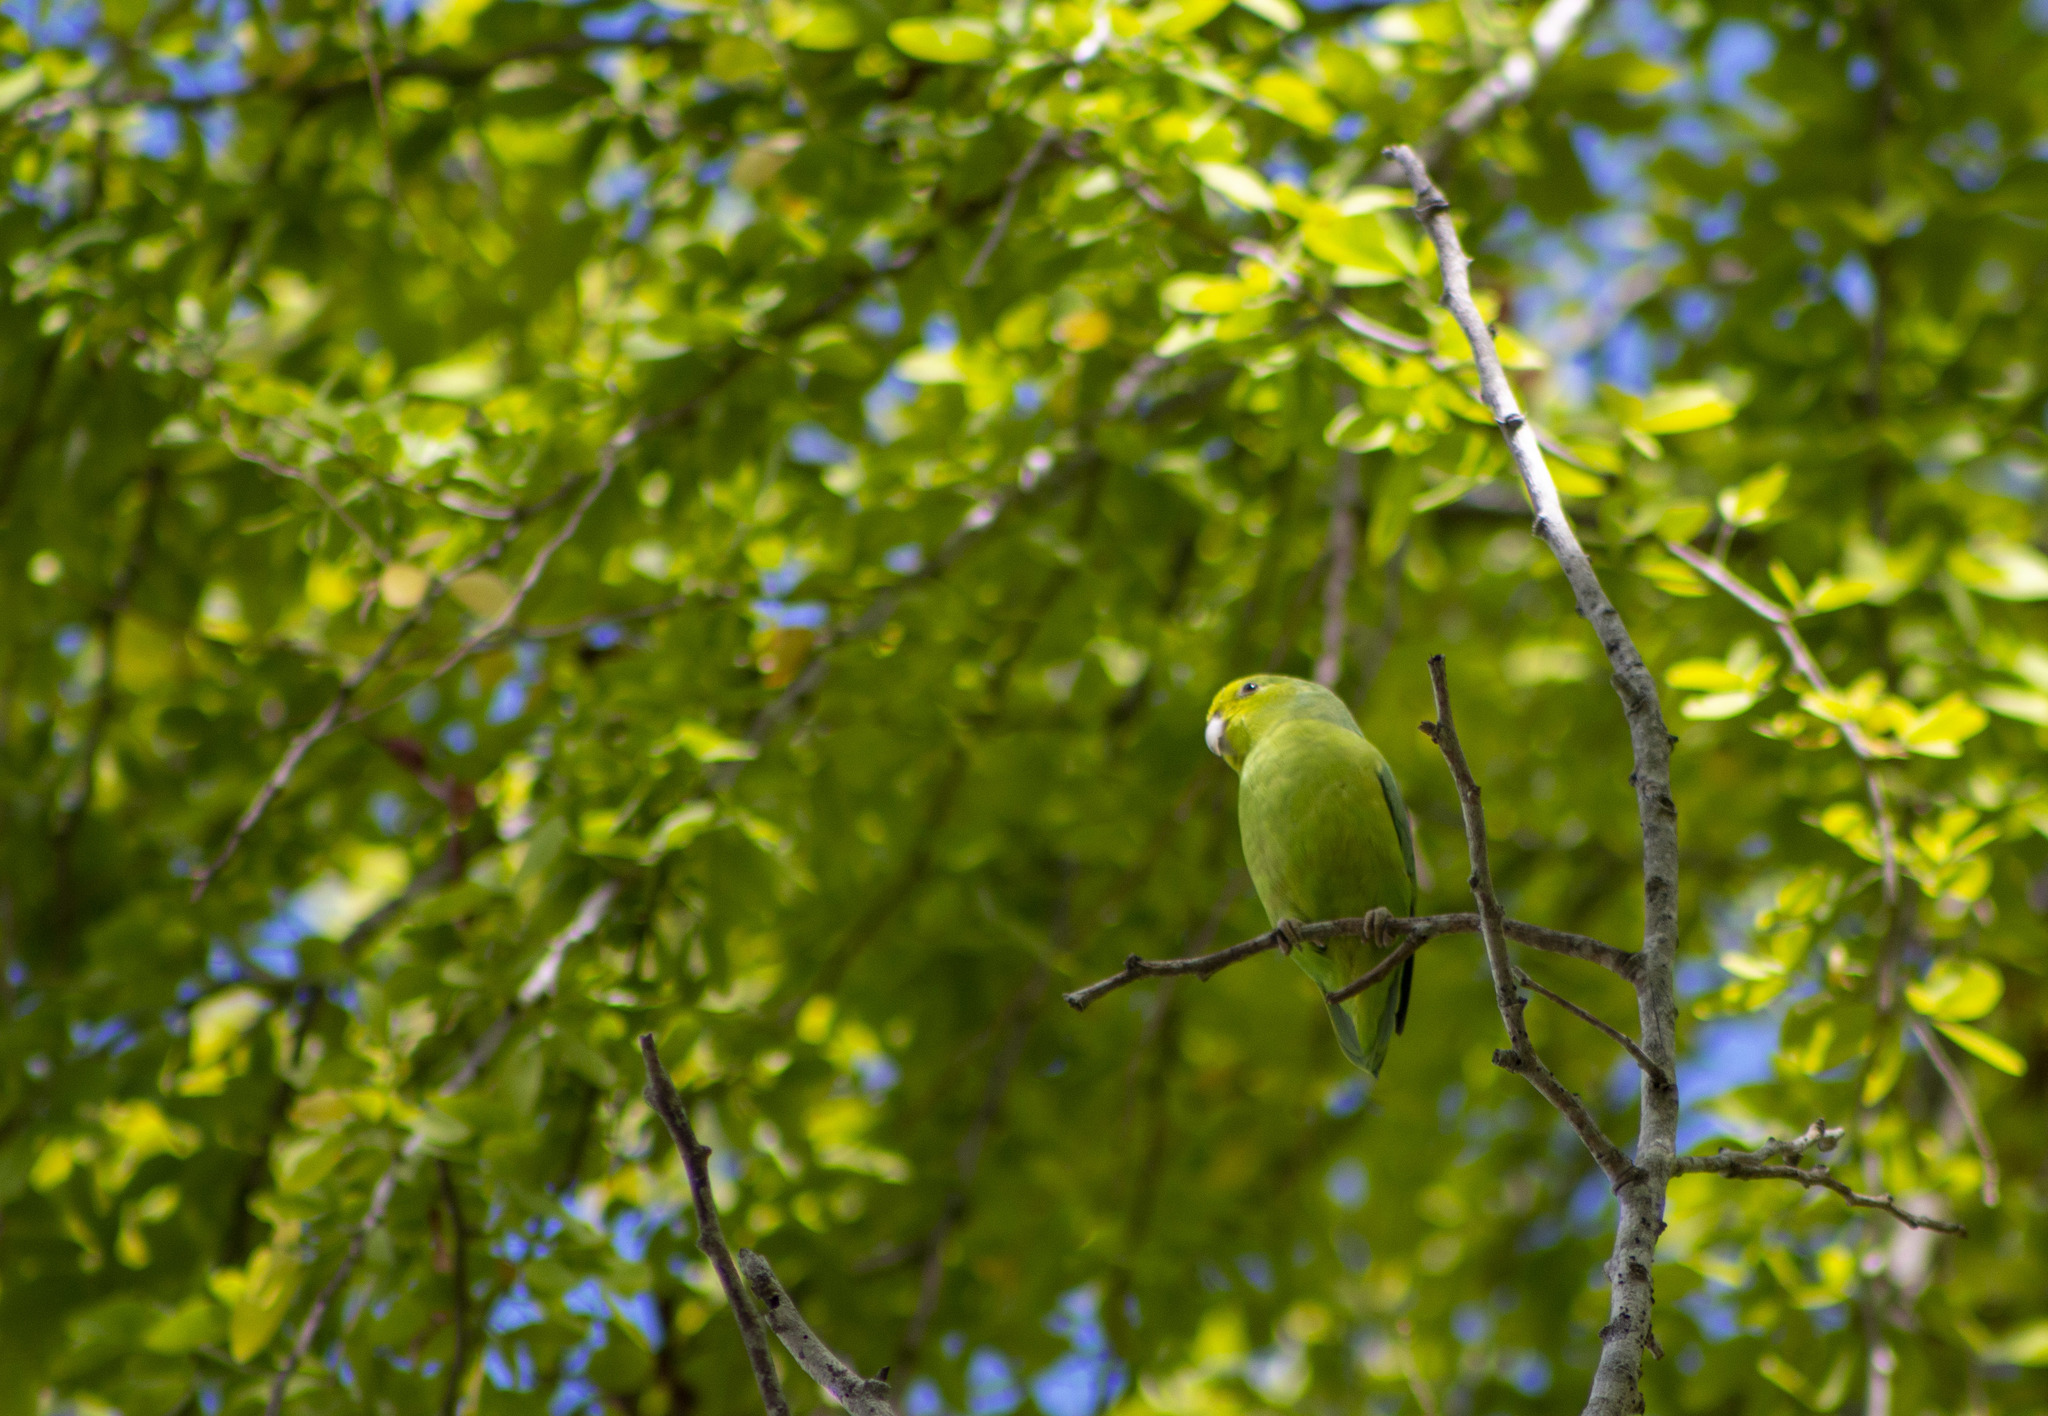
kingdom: Animalia
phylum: Chordata
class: Aves
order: Psittaciformes
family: Psittacidae
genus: Forpus
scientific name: Forpus xanthopterygius
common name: Blue-winged parrotlet
